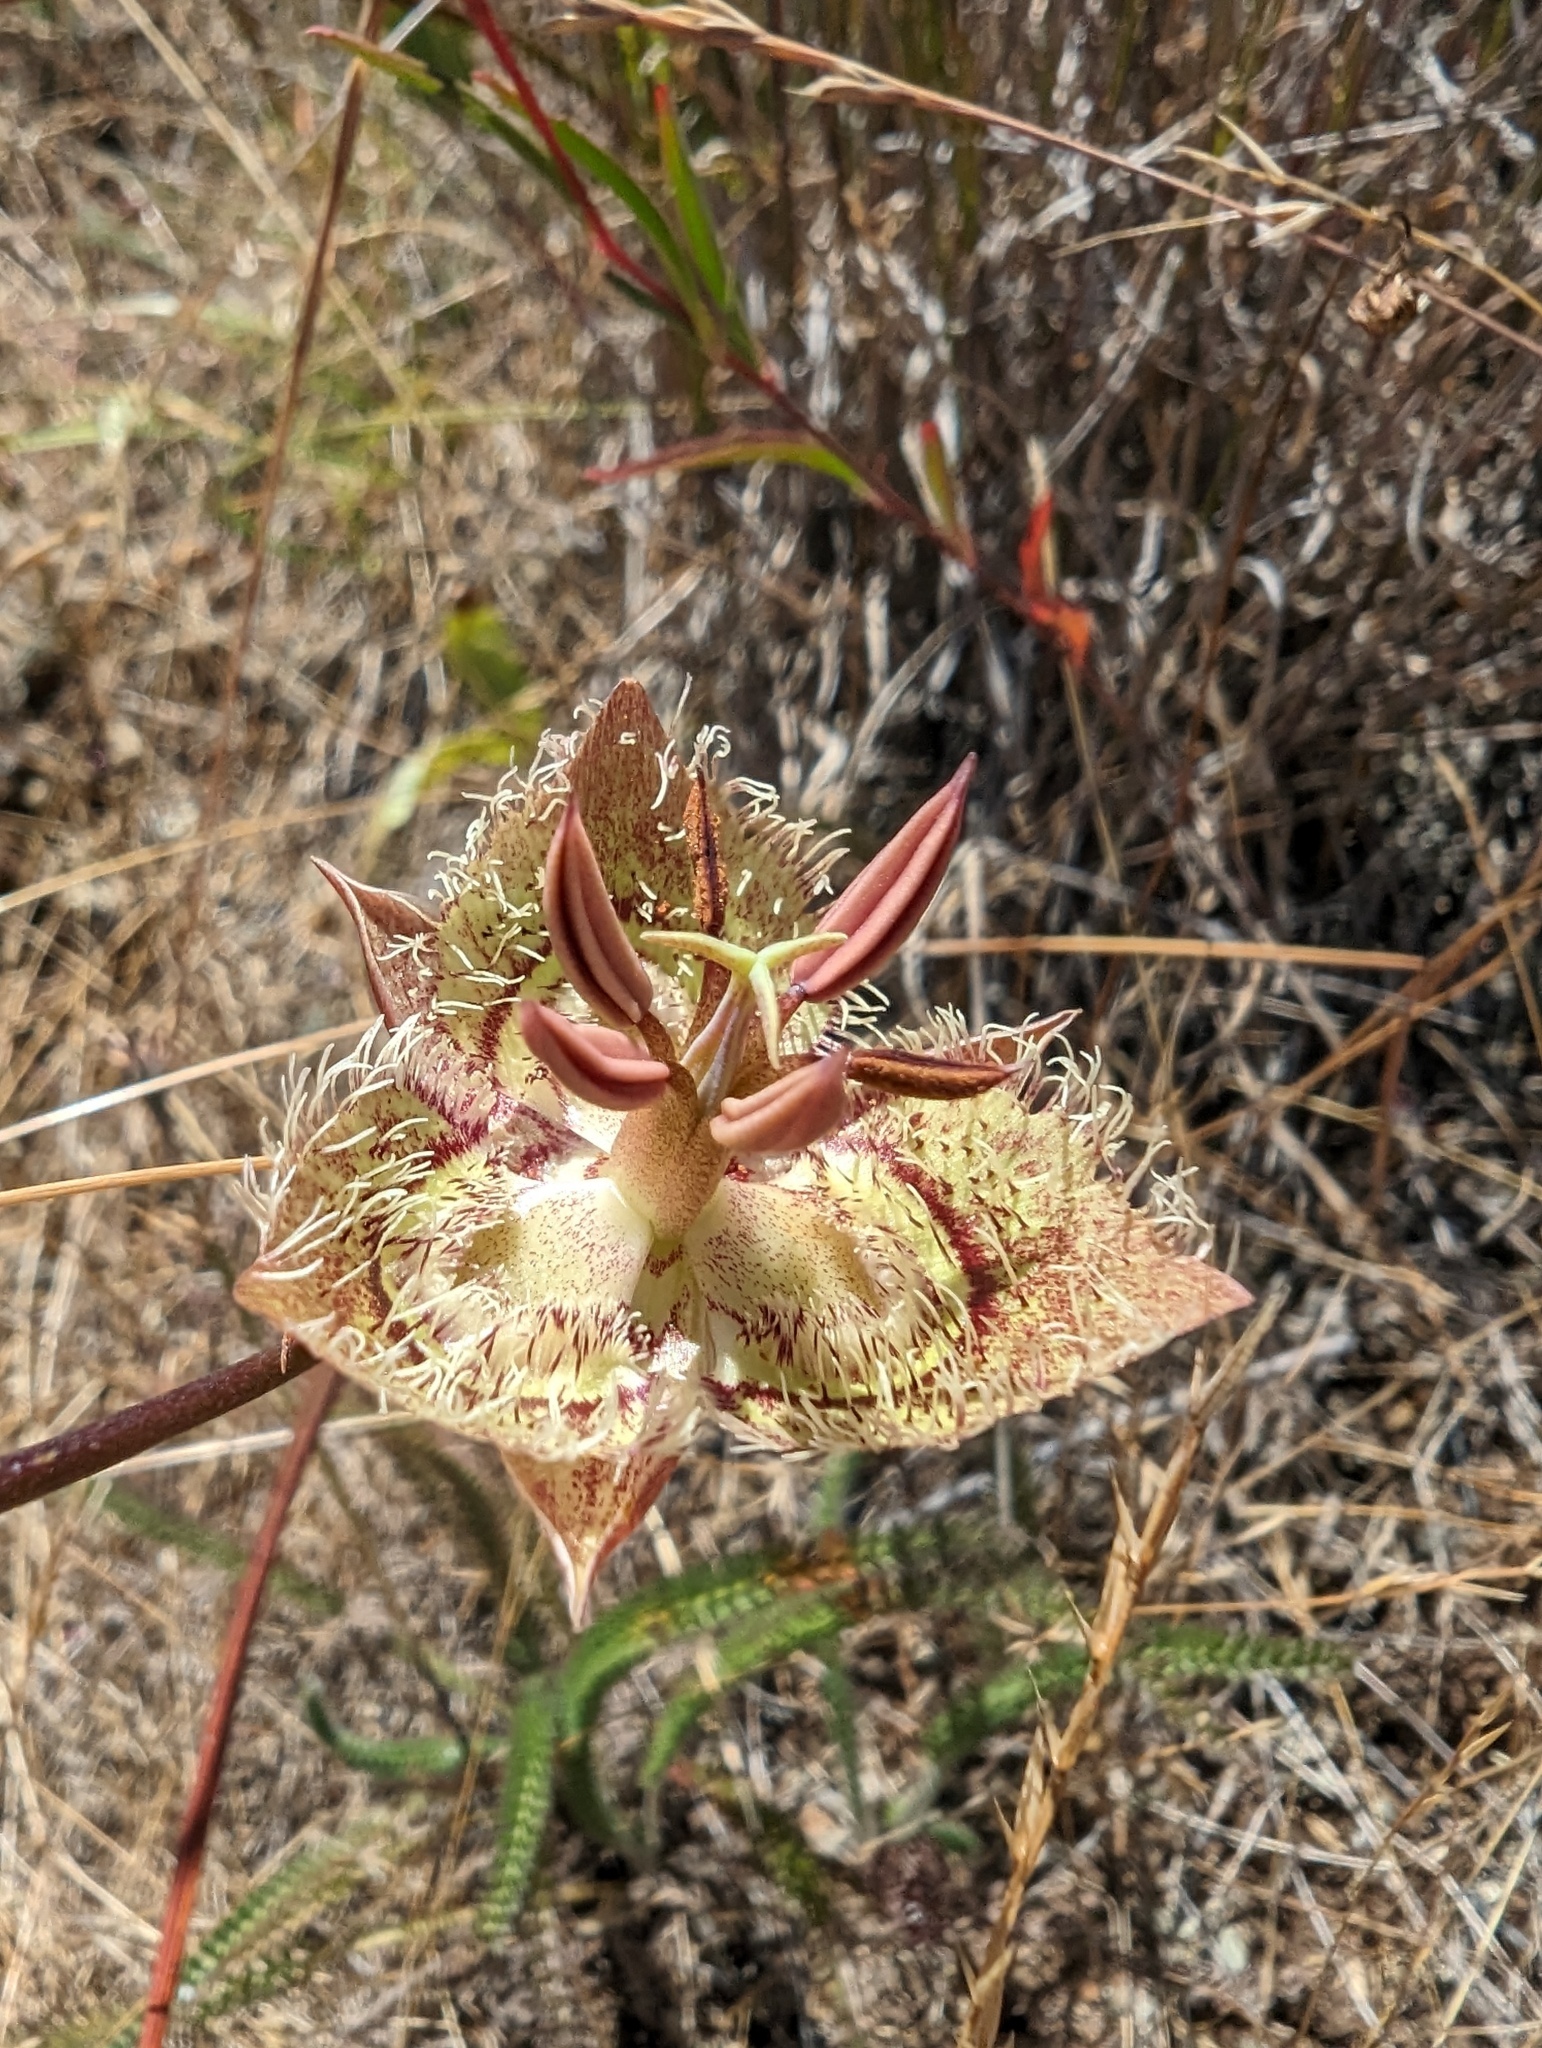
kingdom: Plantae
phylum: Tracheophyta
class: Liliopsida
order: Liliales
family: Liliaceae
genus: Calochortus
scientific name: Calochortus tiburonensis
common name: Tiburon mariposa-lily
